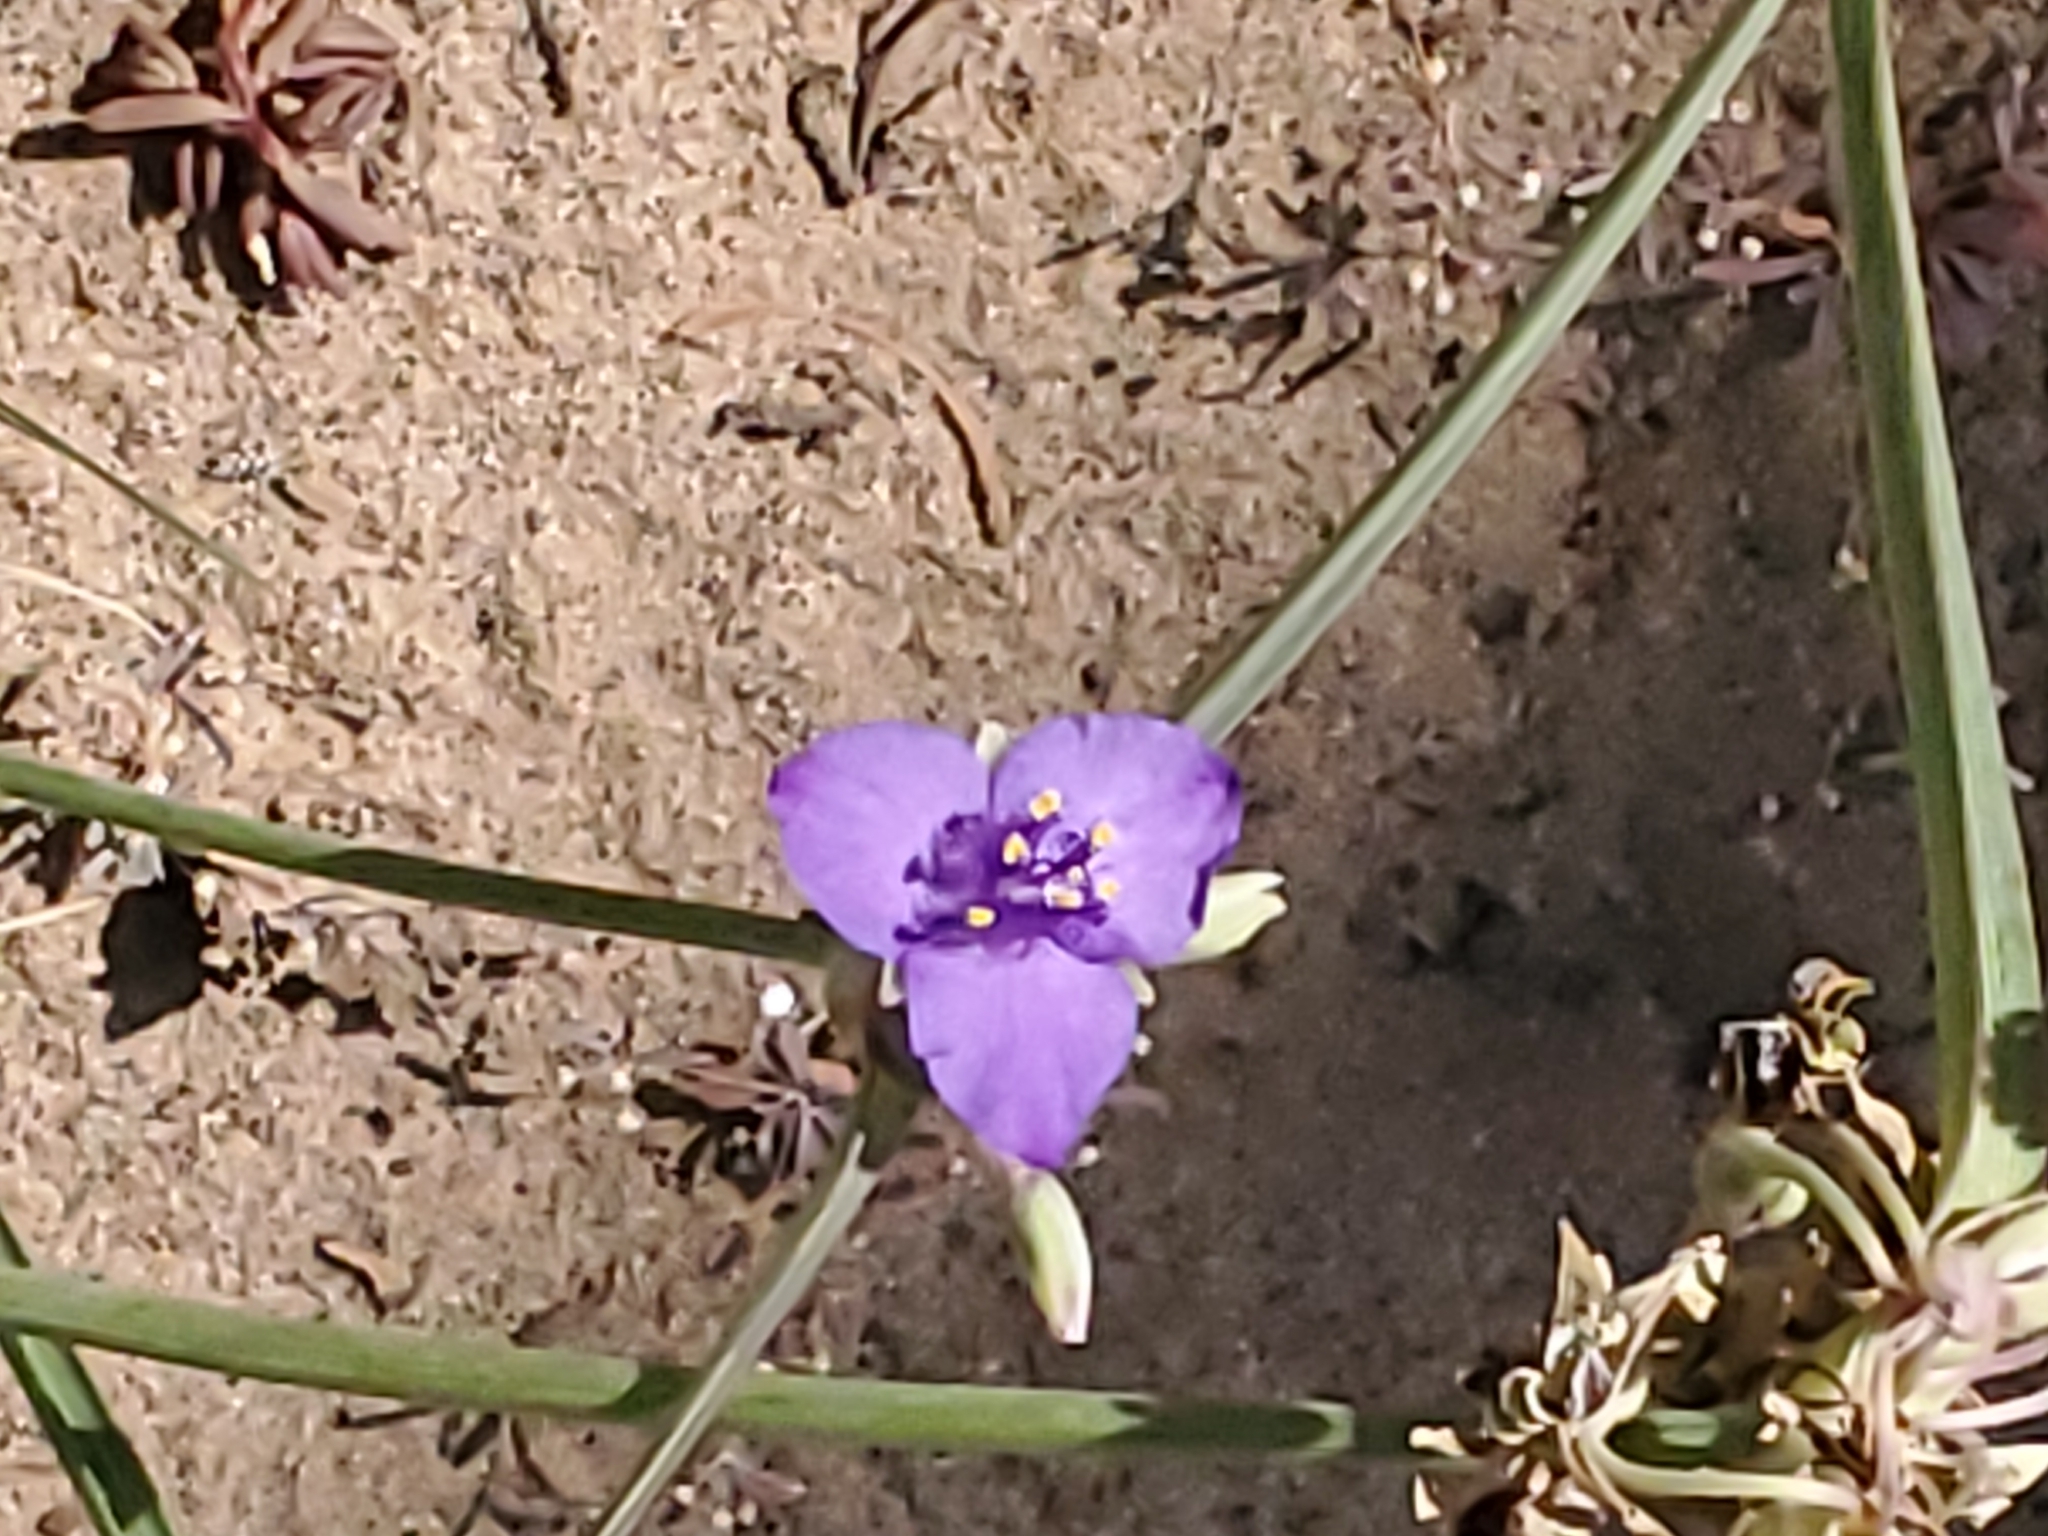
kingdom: Plantae
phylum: Tracheophyta
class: Liliopsida
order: Commelinales
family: Commelinaceae
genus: Tradescantia
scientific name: Tradescantia occidentalis
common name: Prairie spiderwort
